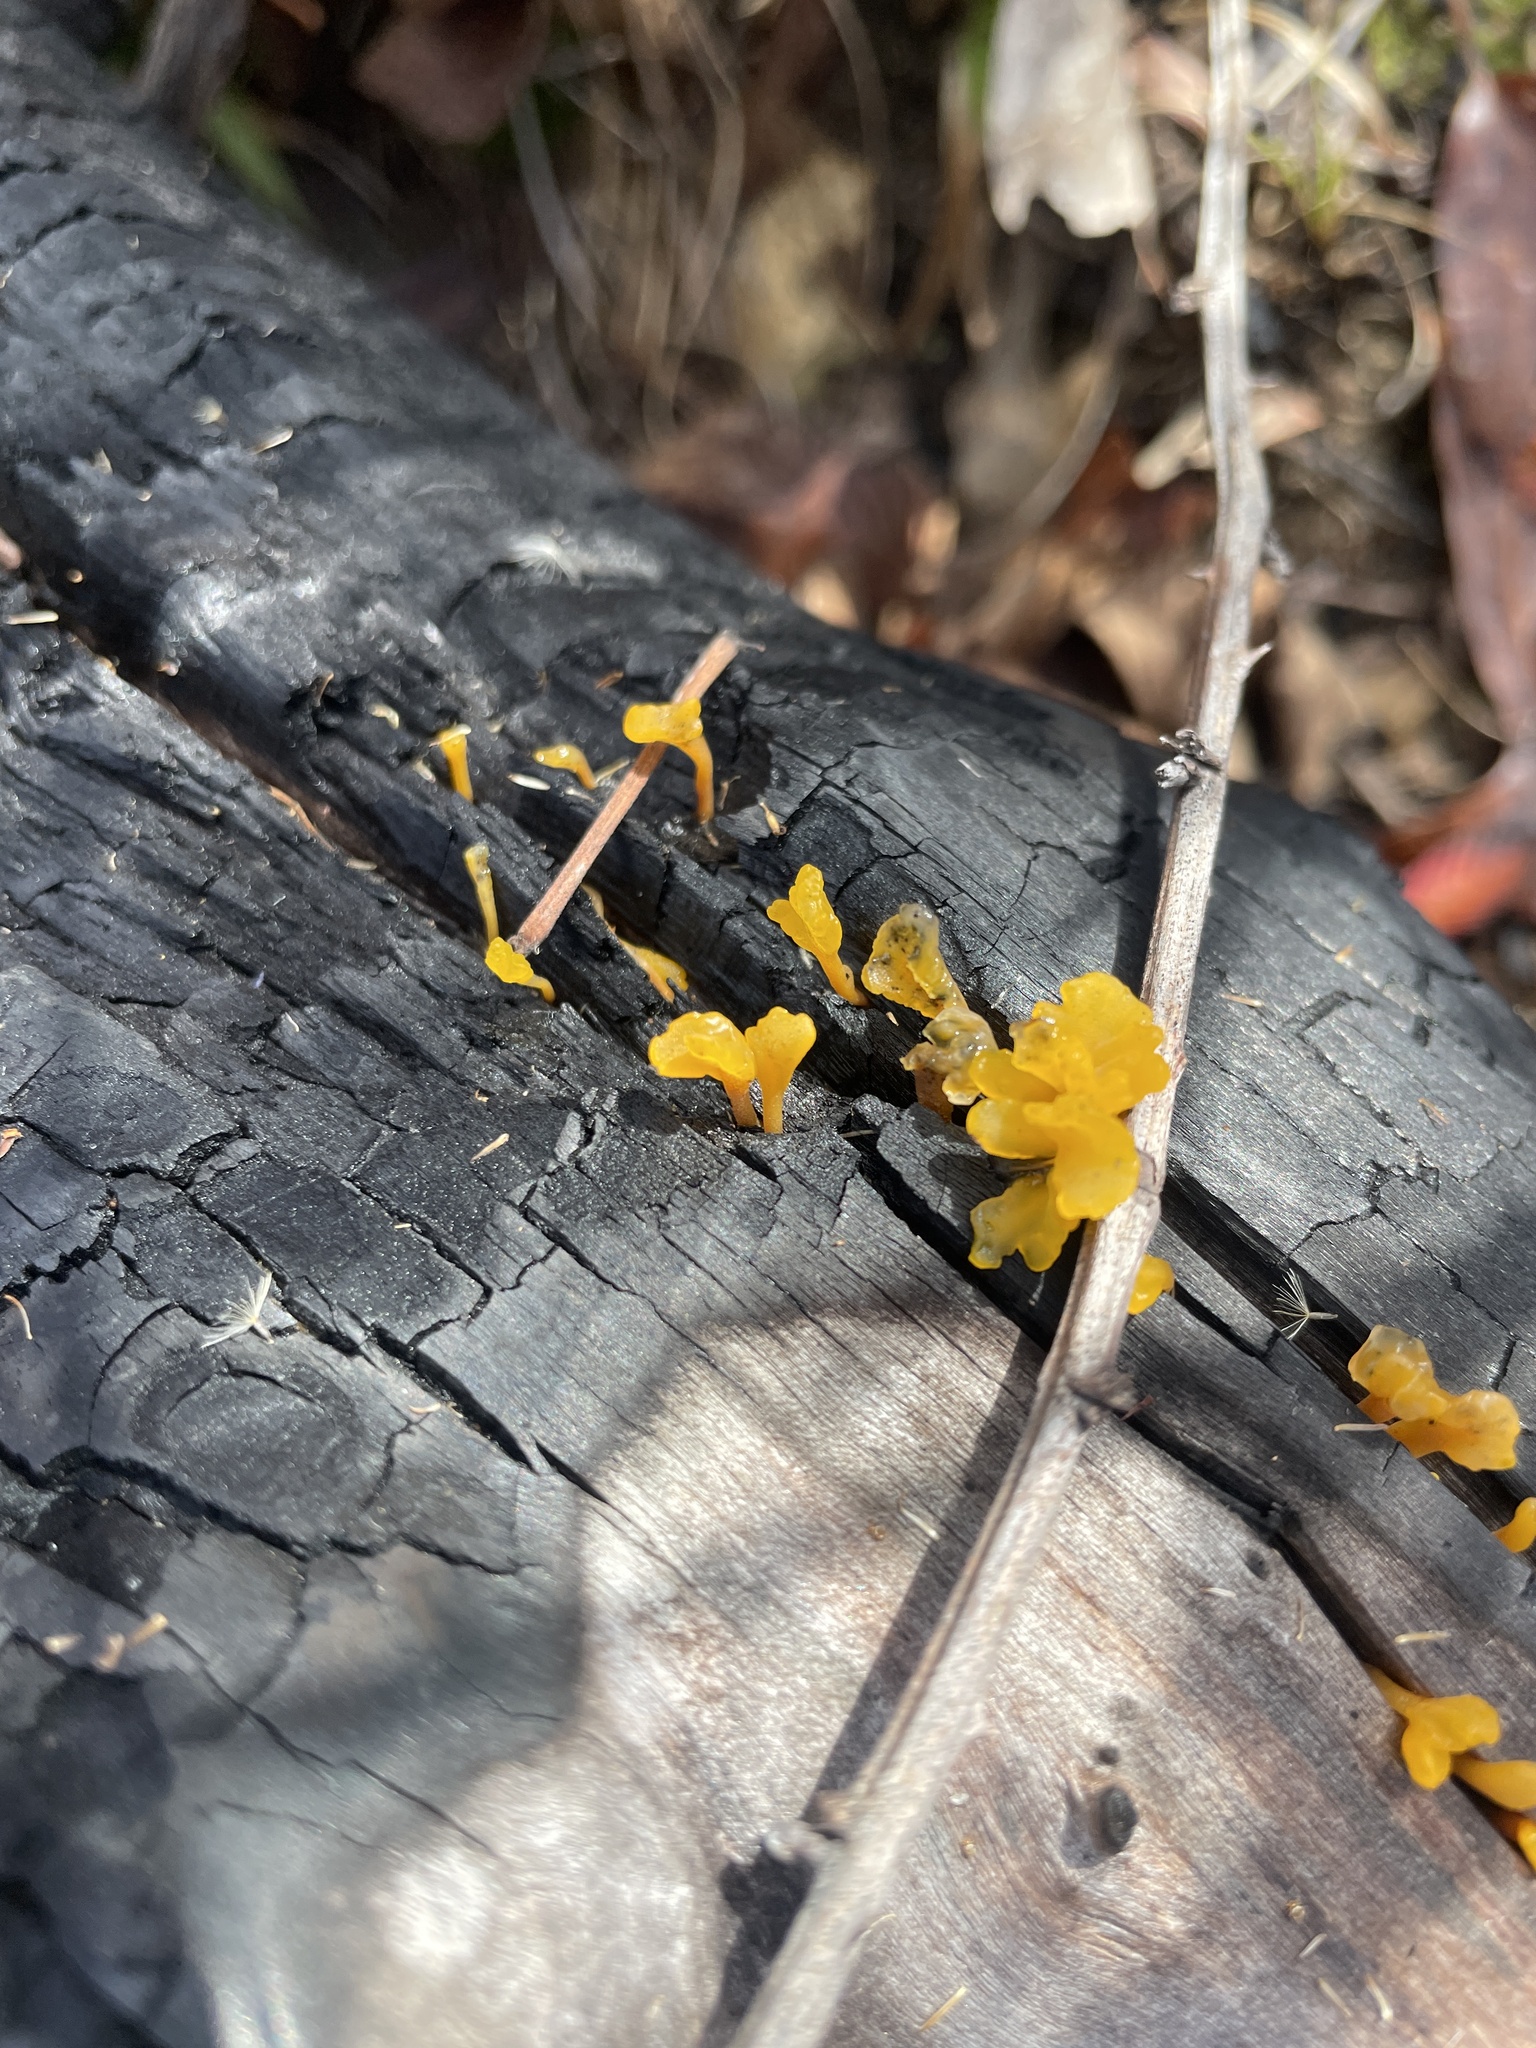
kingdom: Fungi
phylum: Basidiomycota
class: Dacrymycetes
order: Dacrymycetales
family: Dacrymycetaceae
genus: Dacrymyces
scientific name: Dacrymyces spathularius
